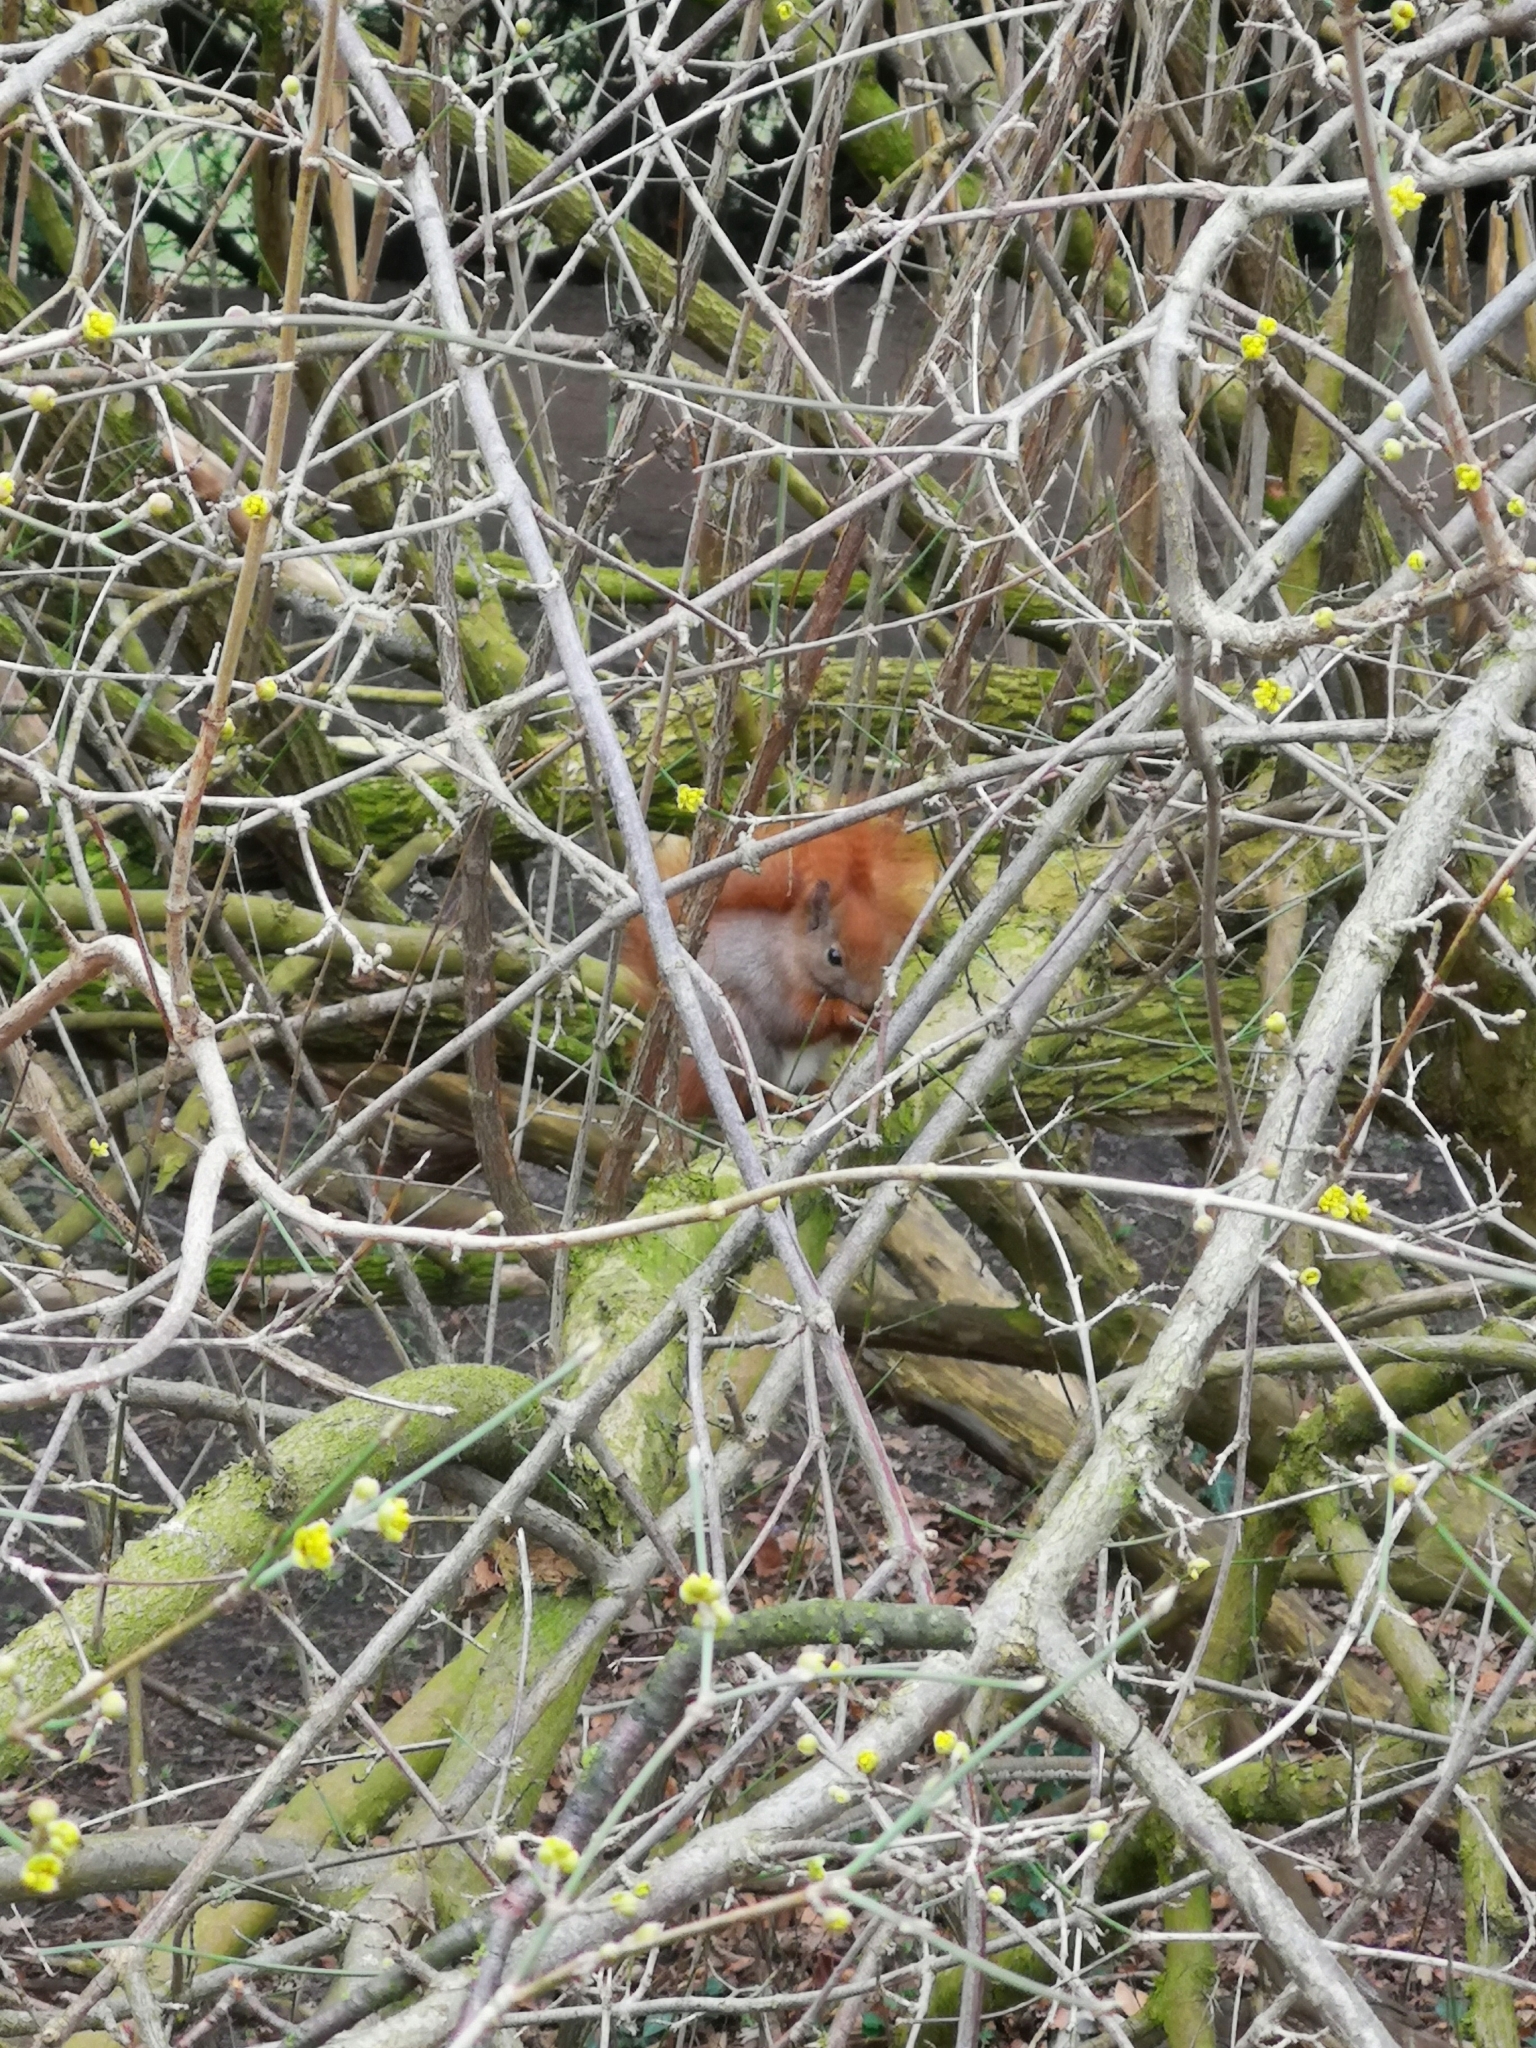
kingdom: Animalia
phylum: Chordata
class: Mammalia
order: Rodentia
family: Sciuridae
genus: Sciurus
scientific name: Sciurus vulgaris
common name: Eurasian red squirrel
